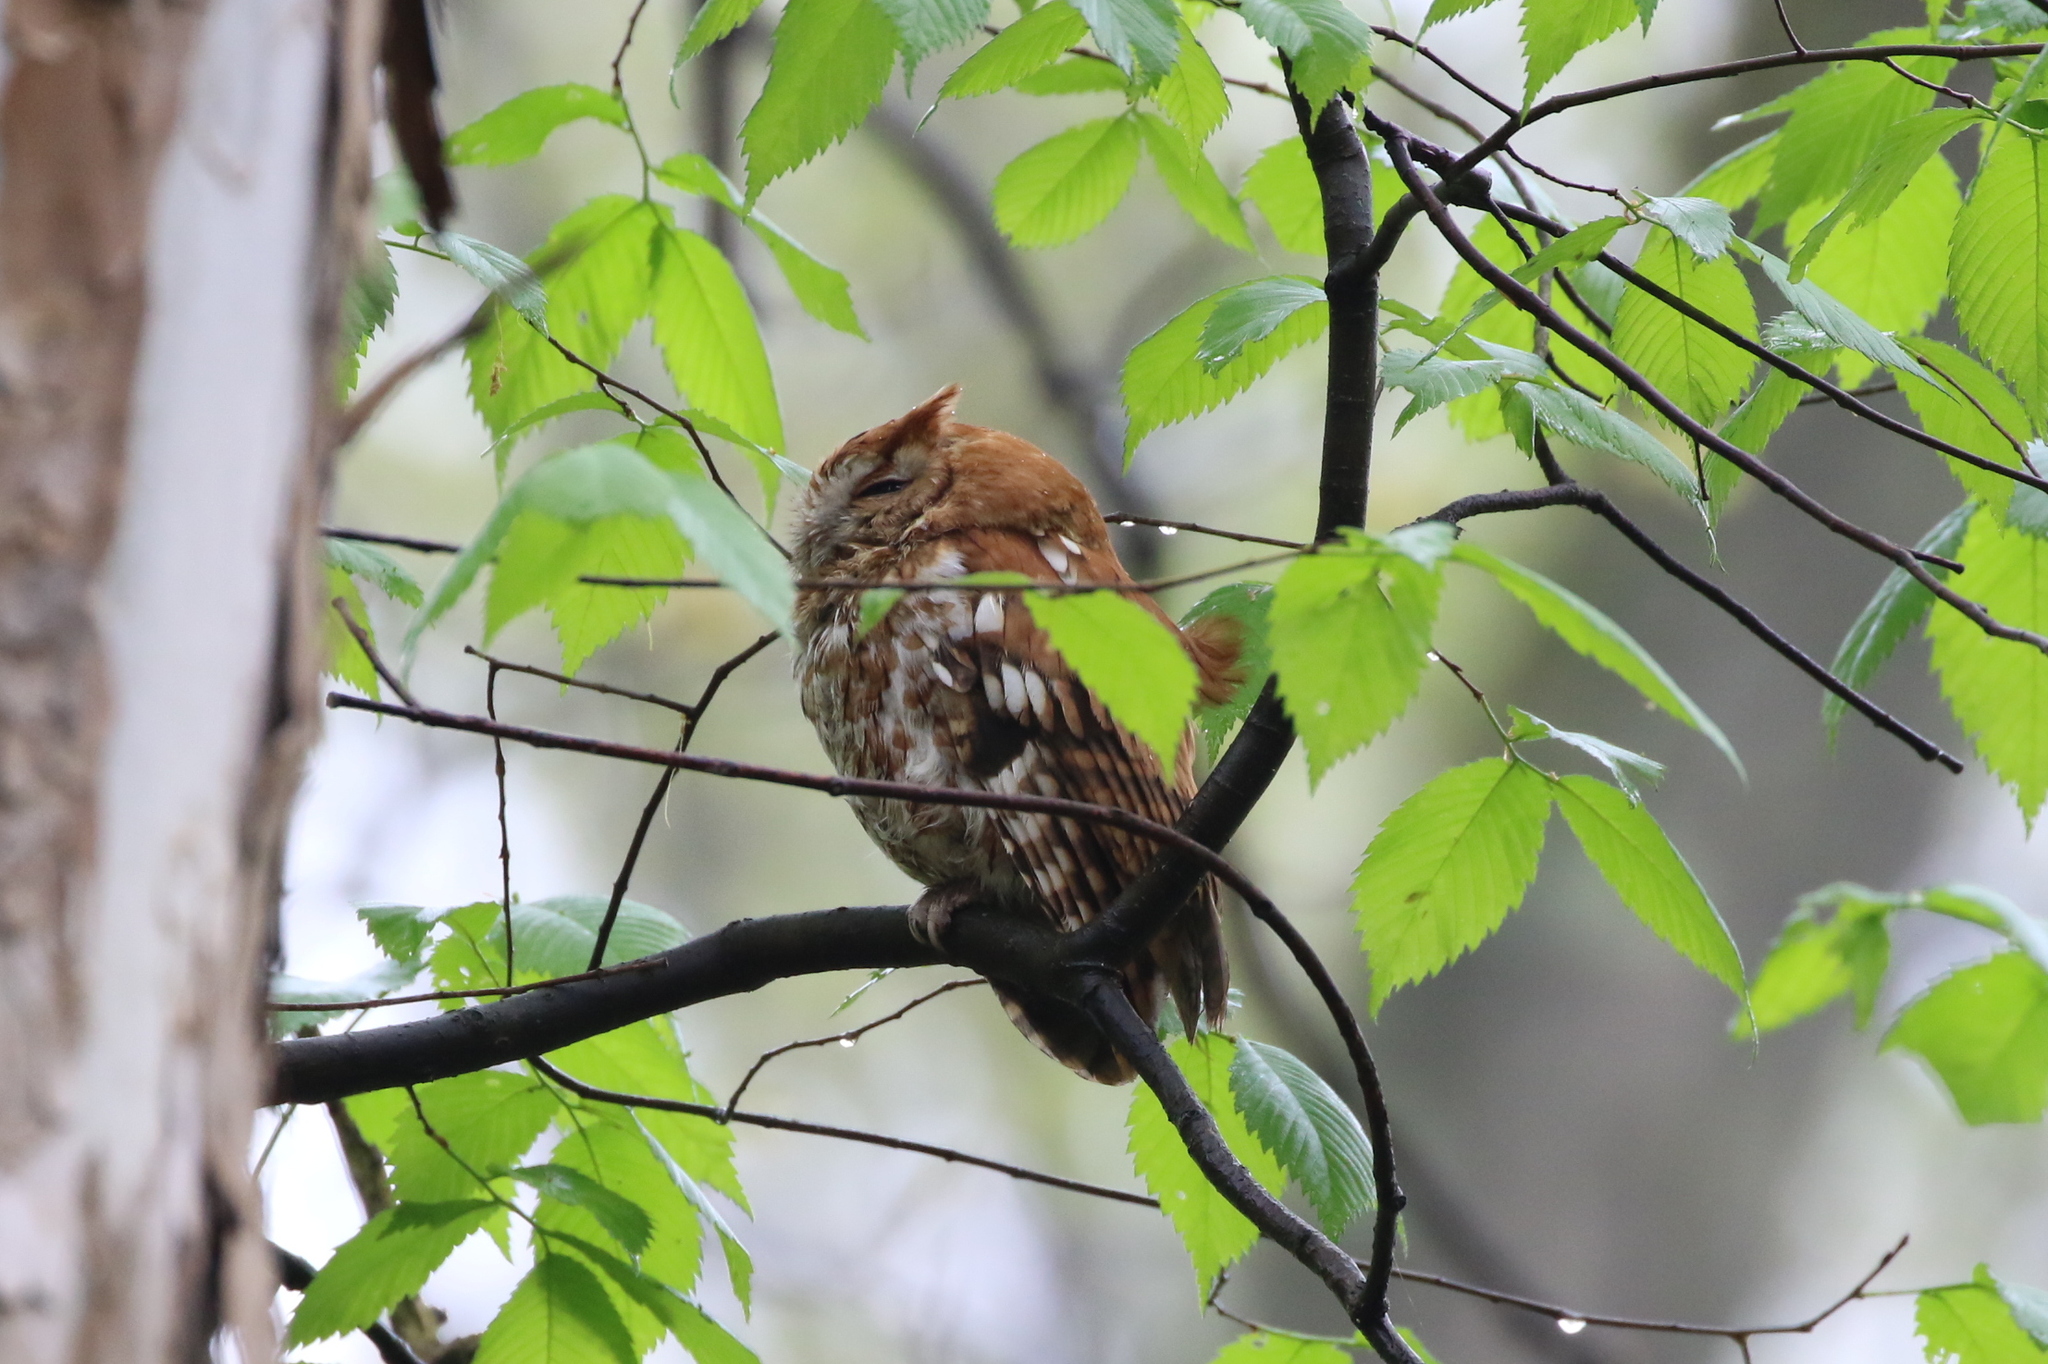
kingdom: Animalia
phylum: Chordata
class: Aves
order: Strigiformes
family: Strigidae
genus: Megascops
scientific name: Megascops asio
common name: Eastern screech-owl
